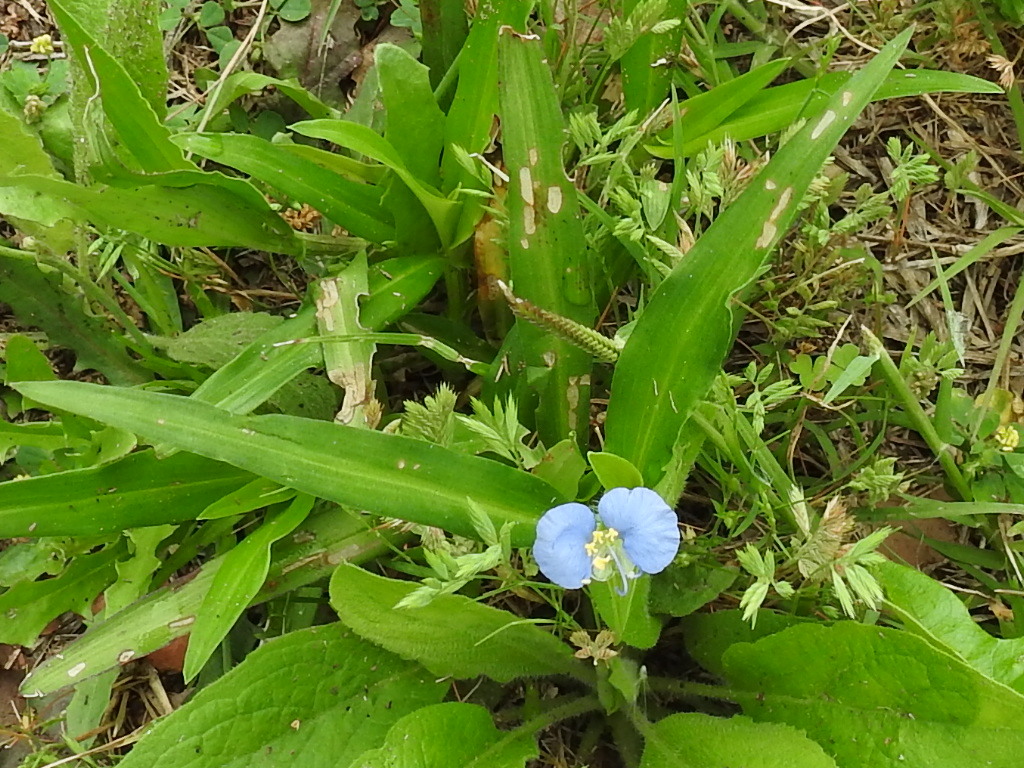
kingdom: Plantae
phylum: Tracheophyta
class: Liliopsida
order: Commelinales
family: Commelinaceae
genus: Commelina
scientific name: Commelina erecta
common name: Blousel blommetjie
